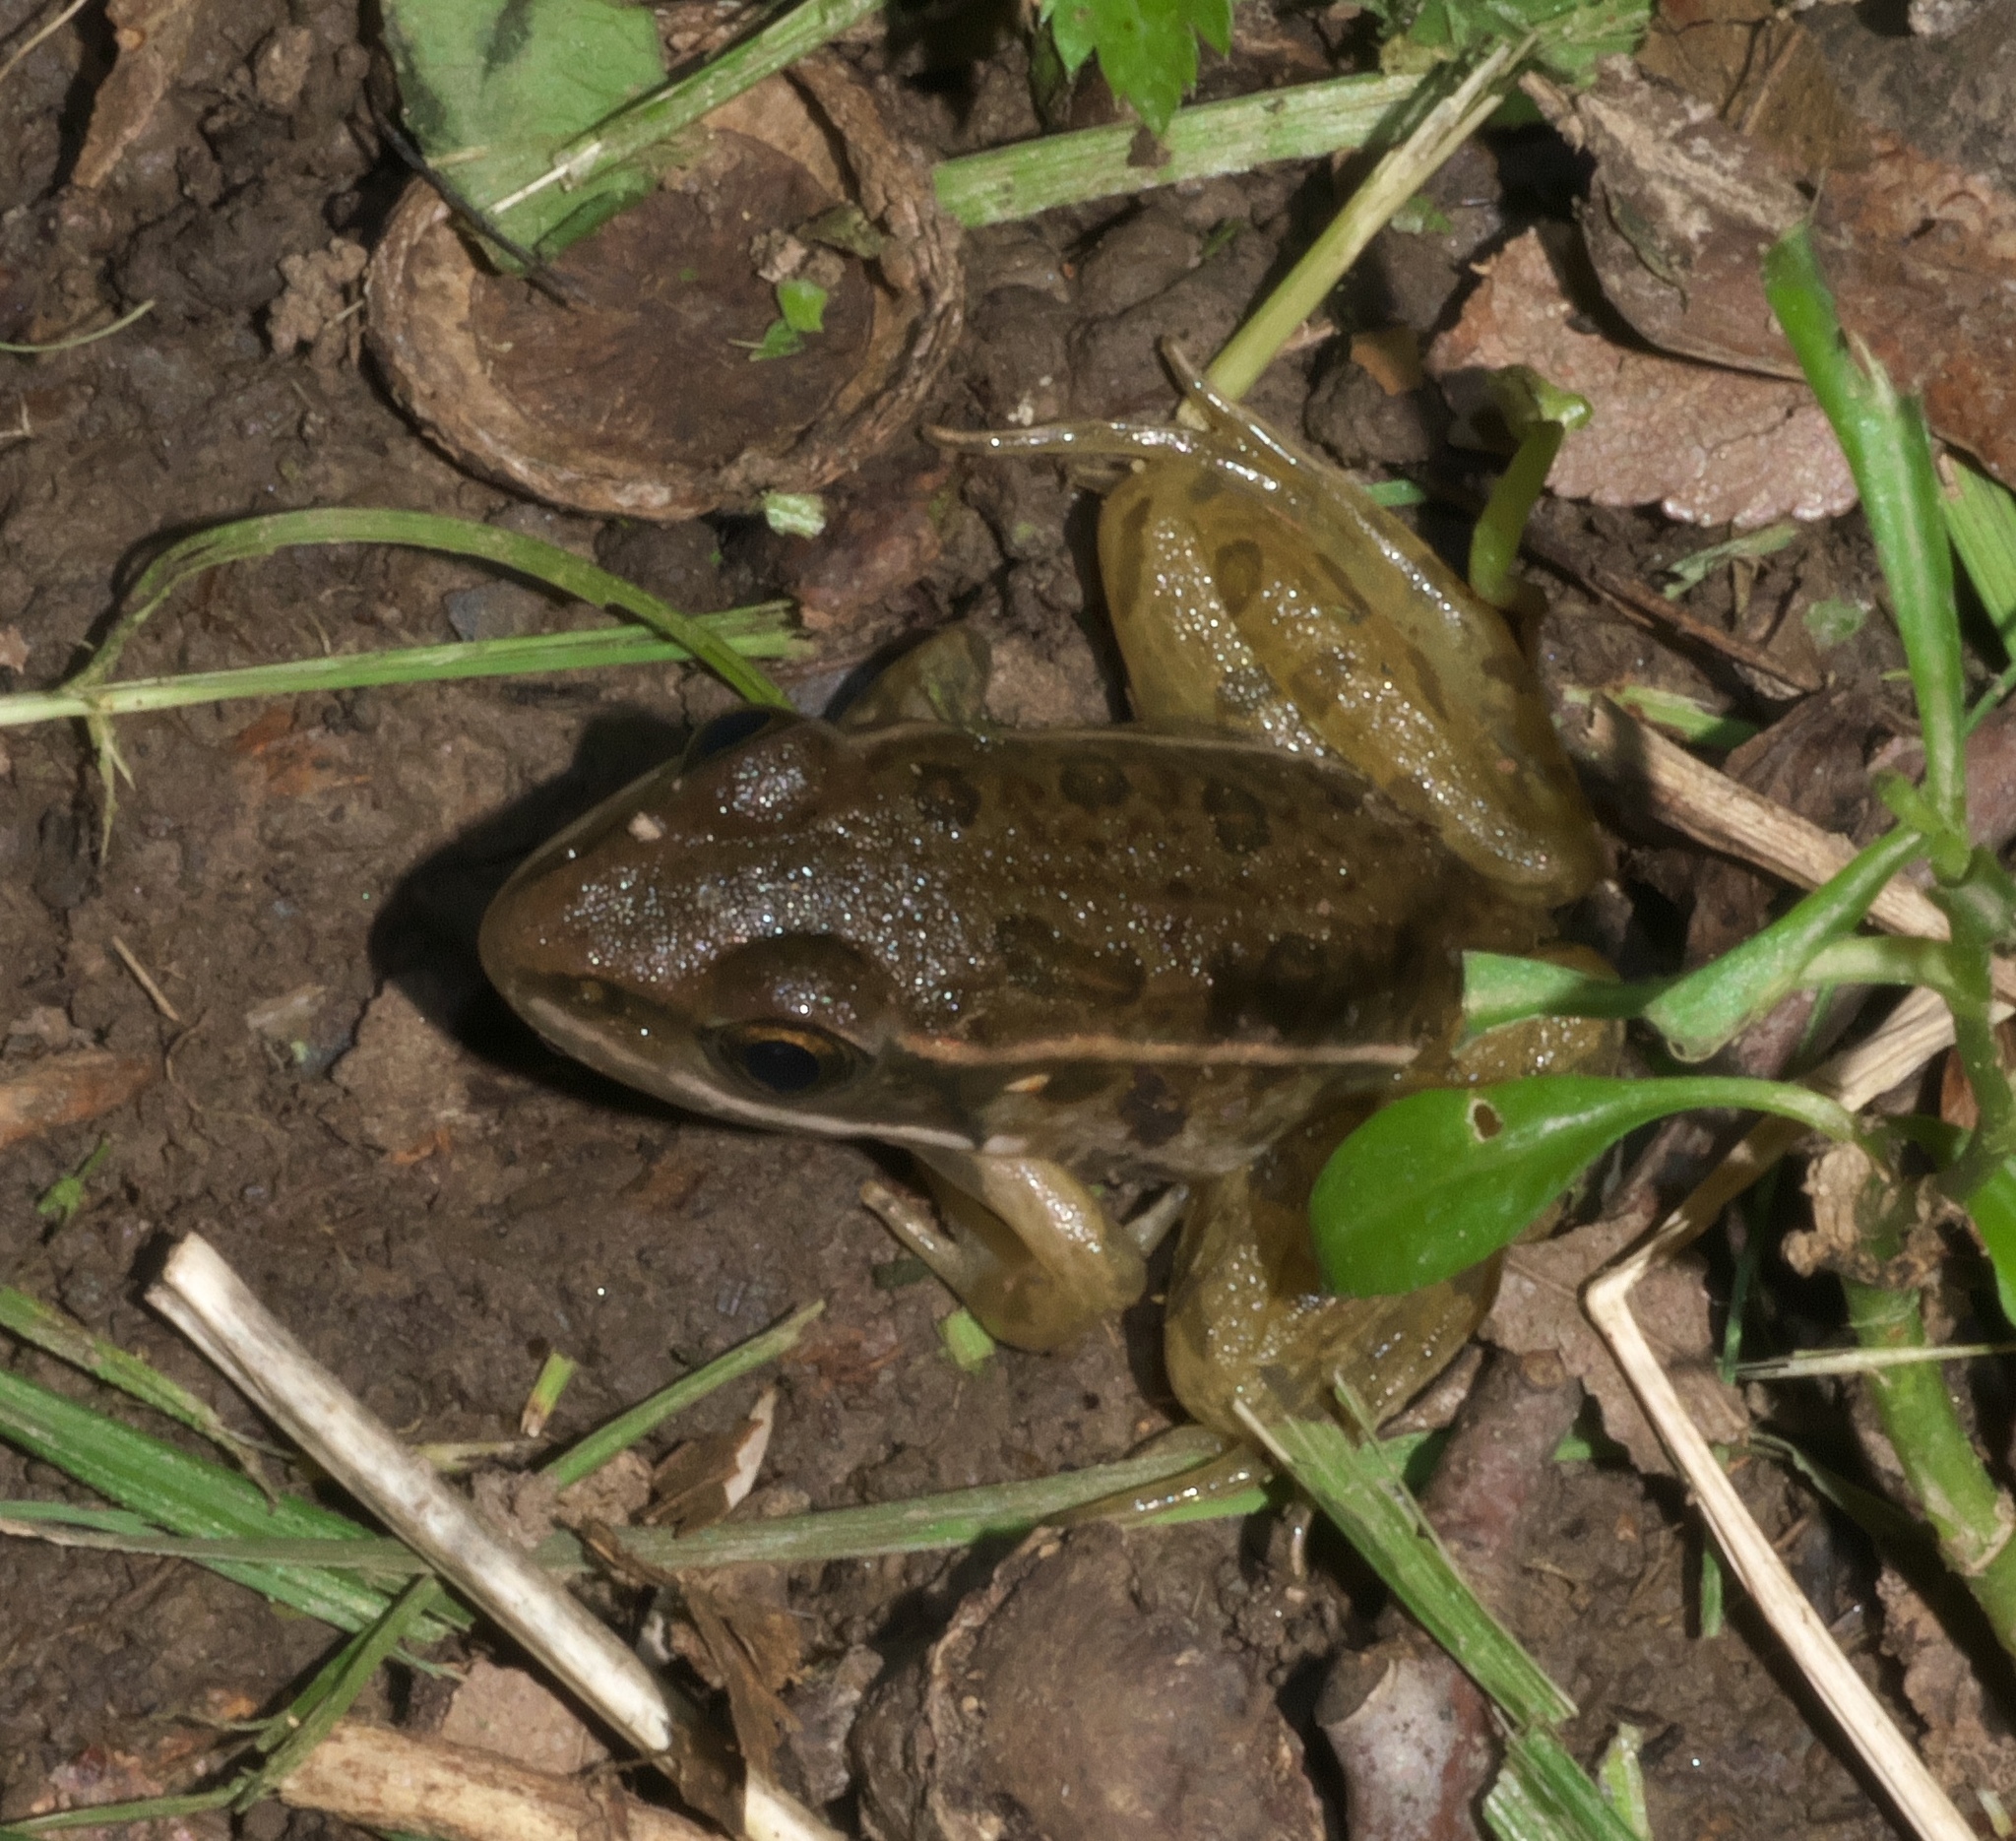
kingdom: Animalia
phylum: Chordata
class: Amphibia
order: Anura
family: Ranidae
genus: Lithobates
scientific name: Lithobates sphenocephalus
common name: Southern leopard frog
